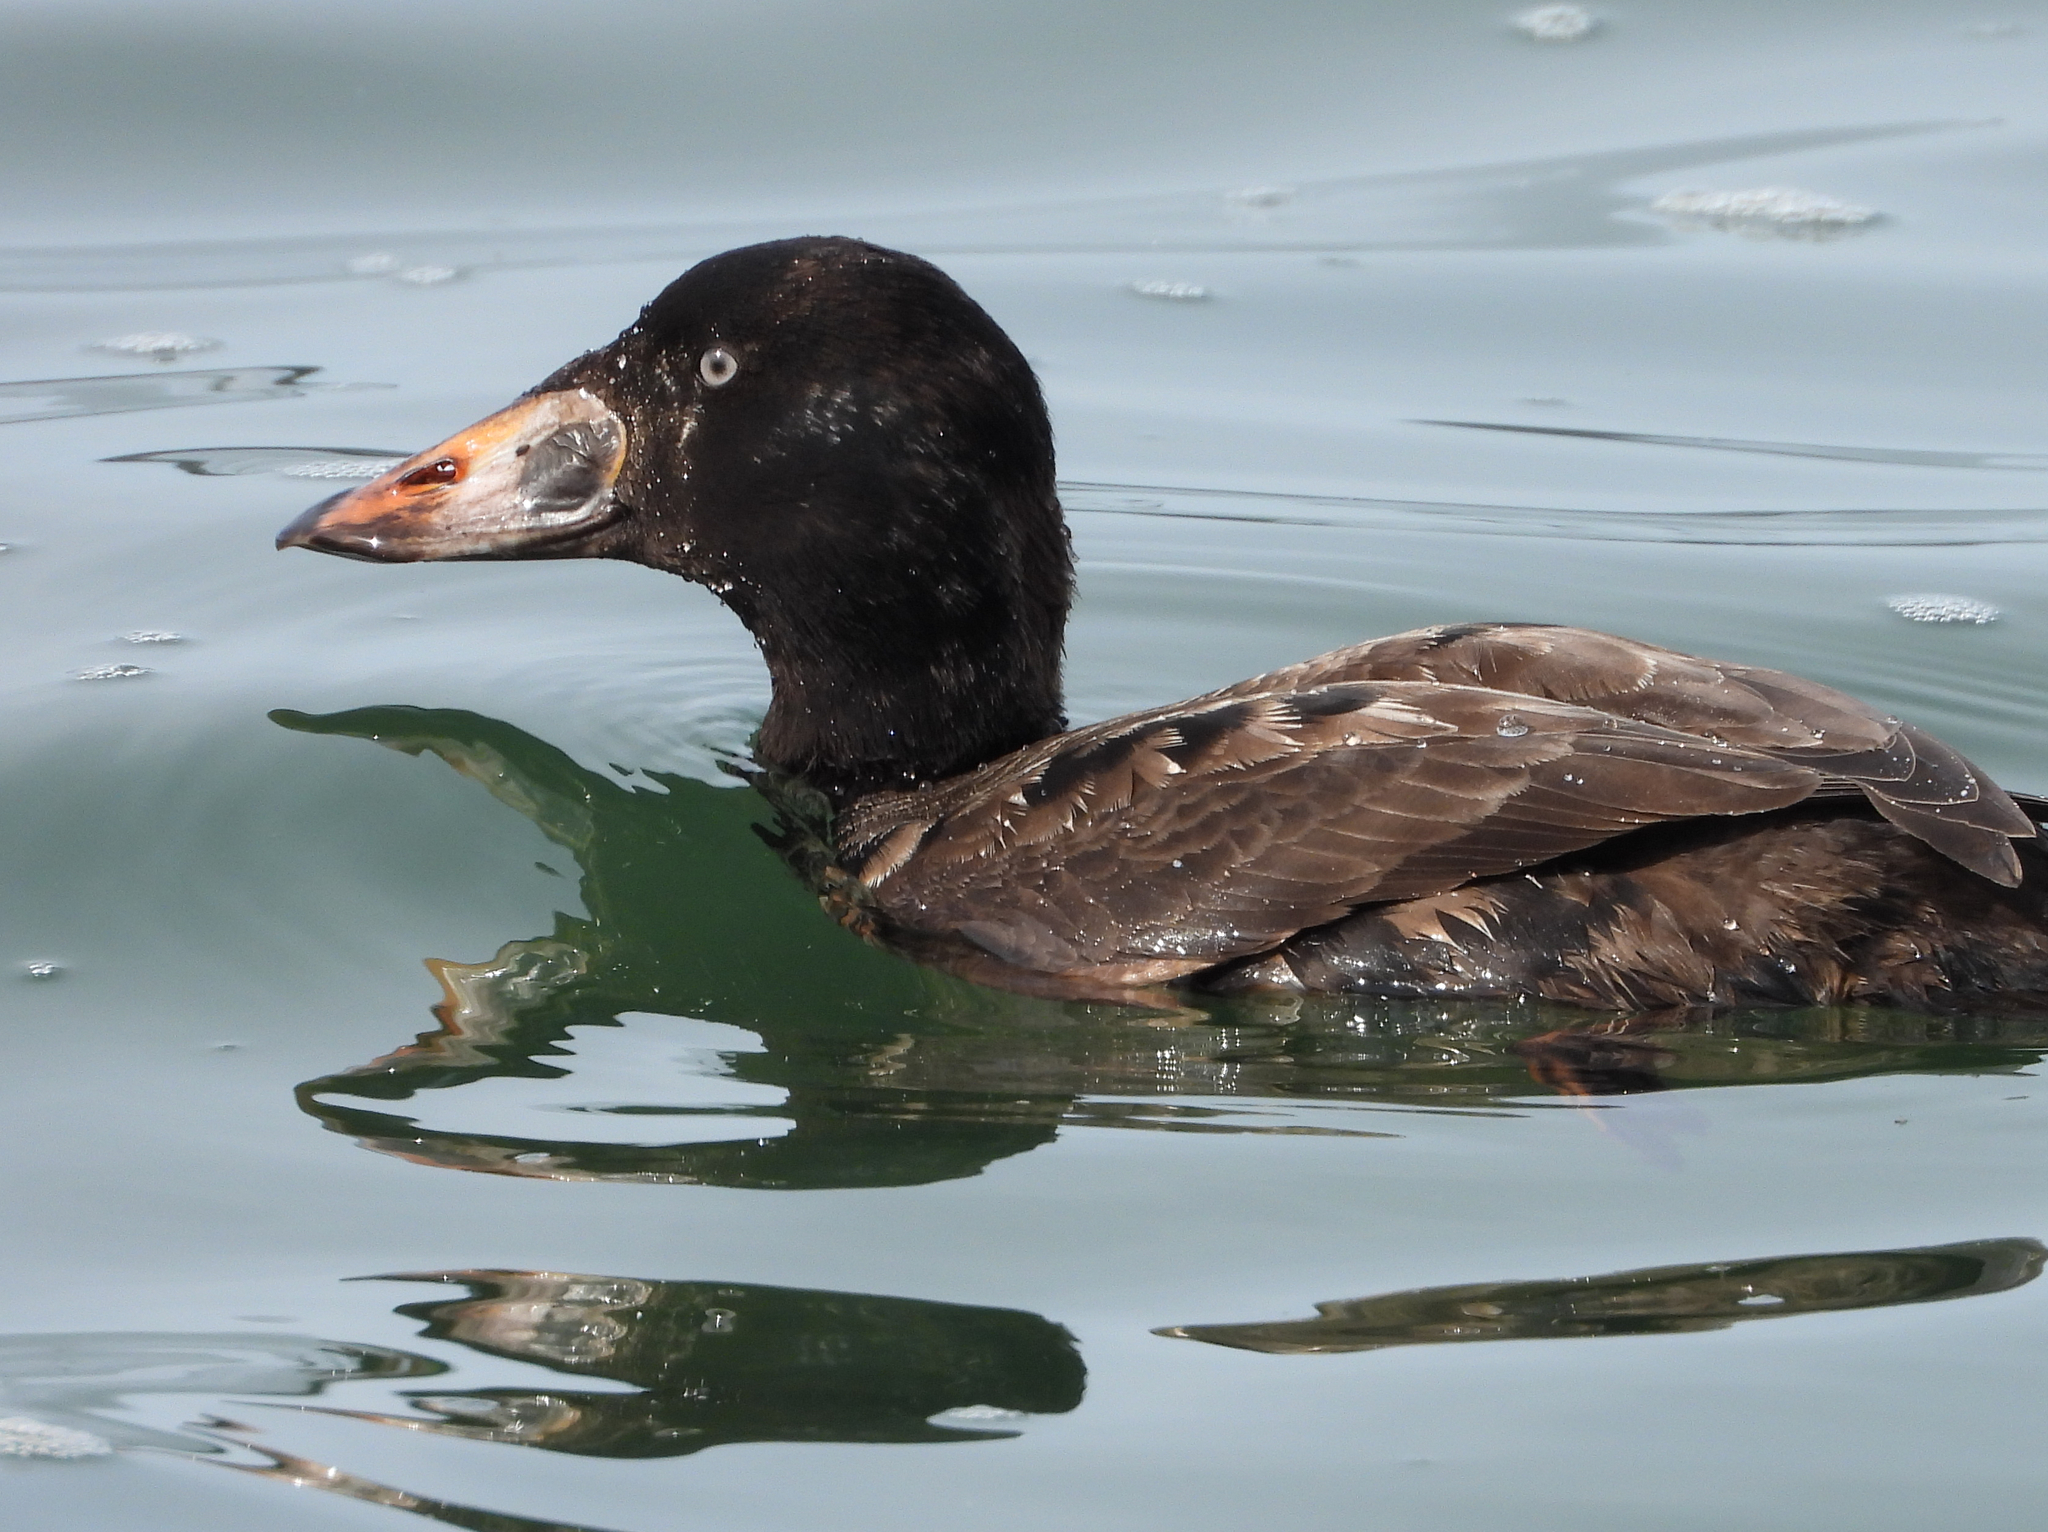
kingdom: Animalia
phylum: Chordata
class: Aves
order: Anseriformes
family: Anatidae
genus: Melanitta
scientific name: Melanitta perspicillata
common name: Surf scoter
